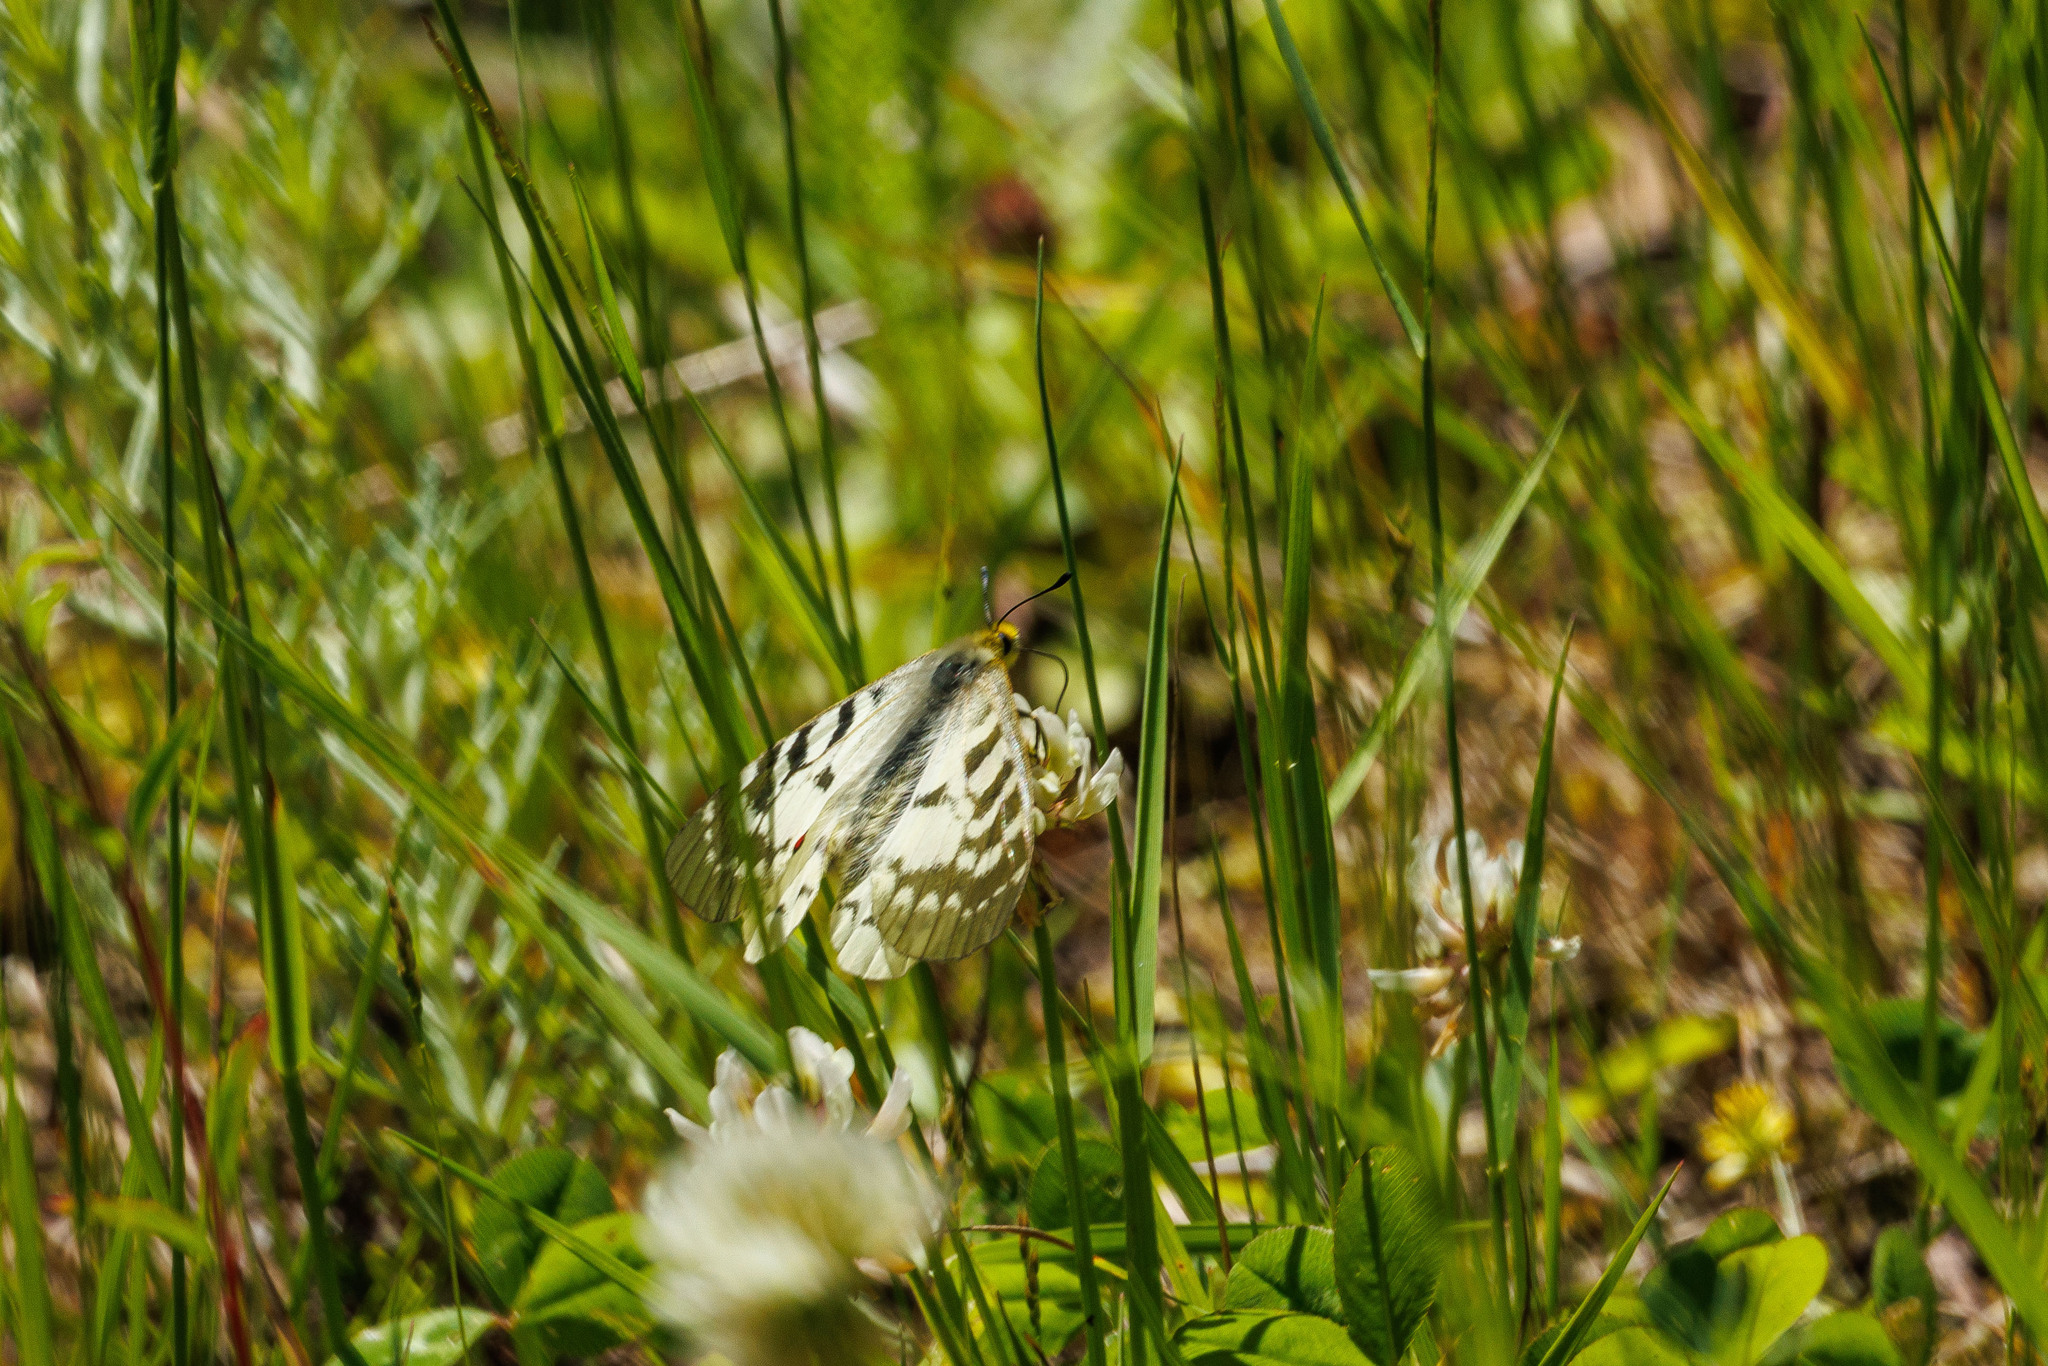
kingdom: Animalia
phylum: Arthropoda
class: Insecta
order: Lepidoptera
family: Papilionidae
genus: Parnassius
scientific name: Parnassius clodius
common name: American apollo
